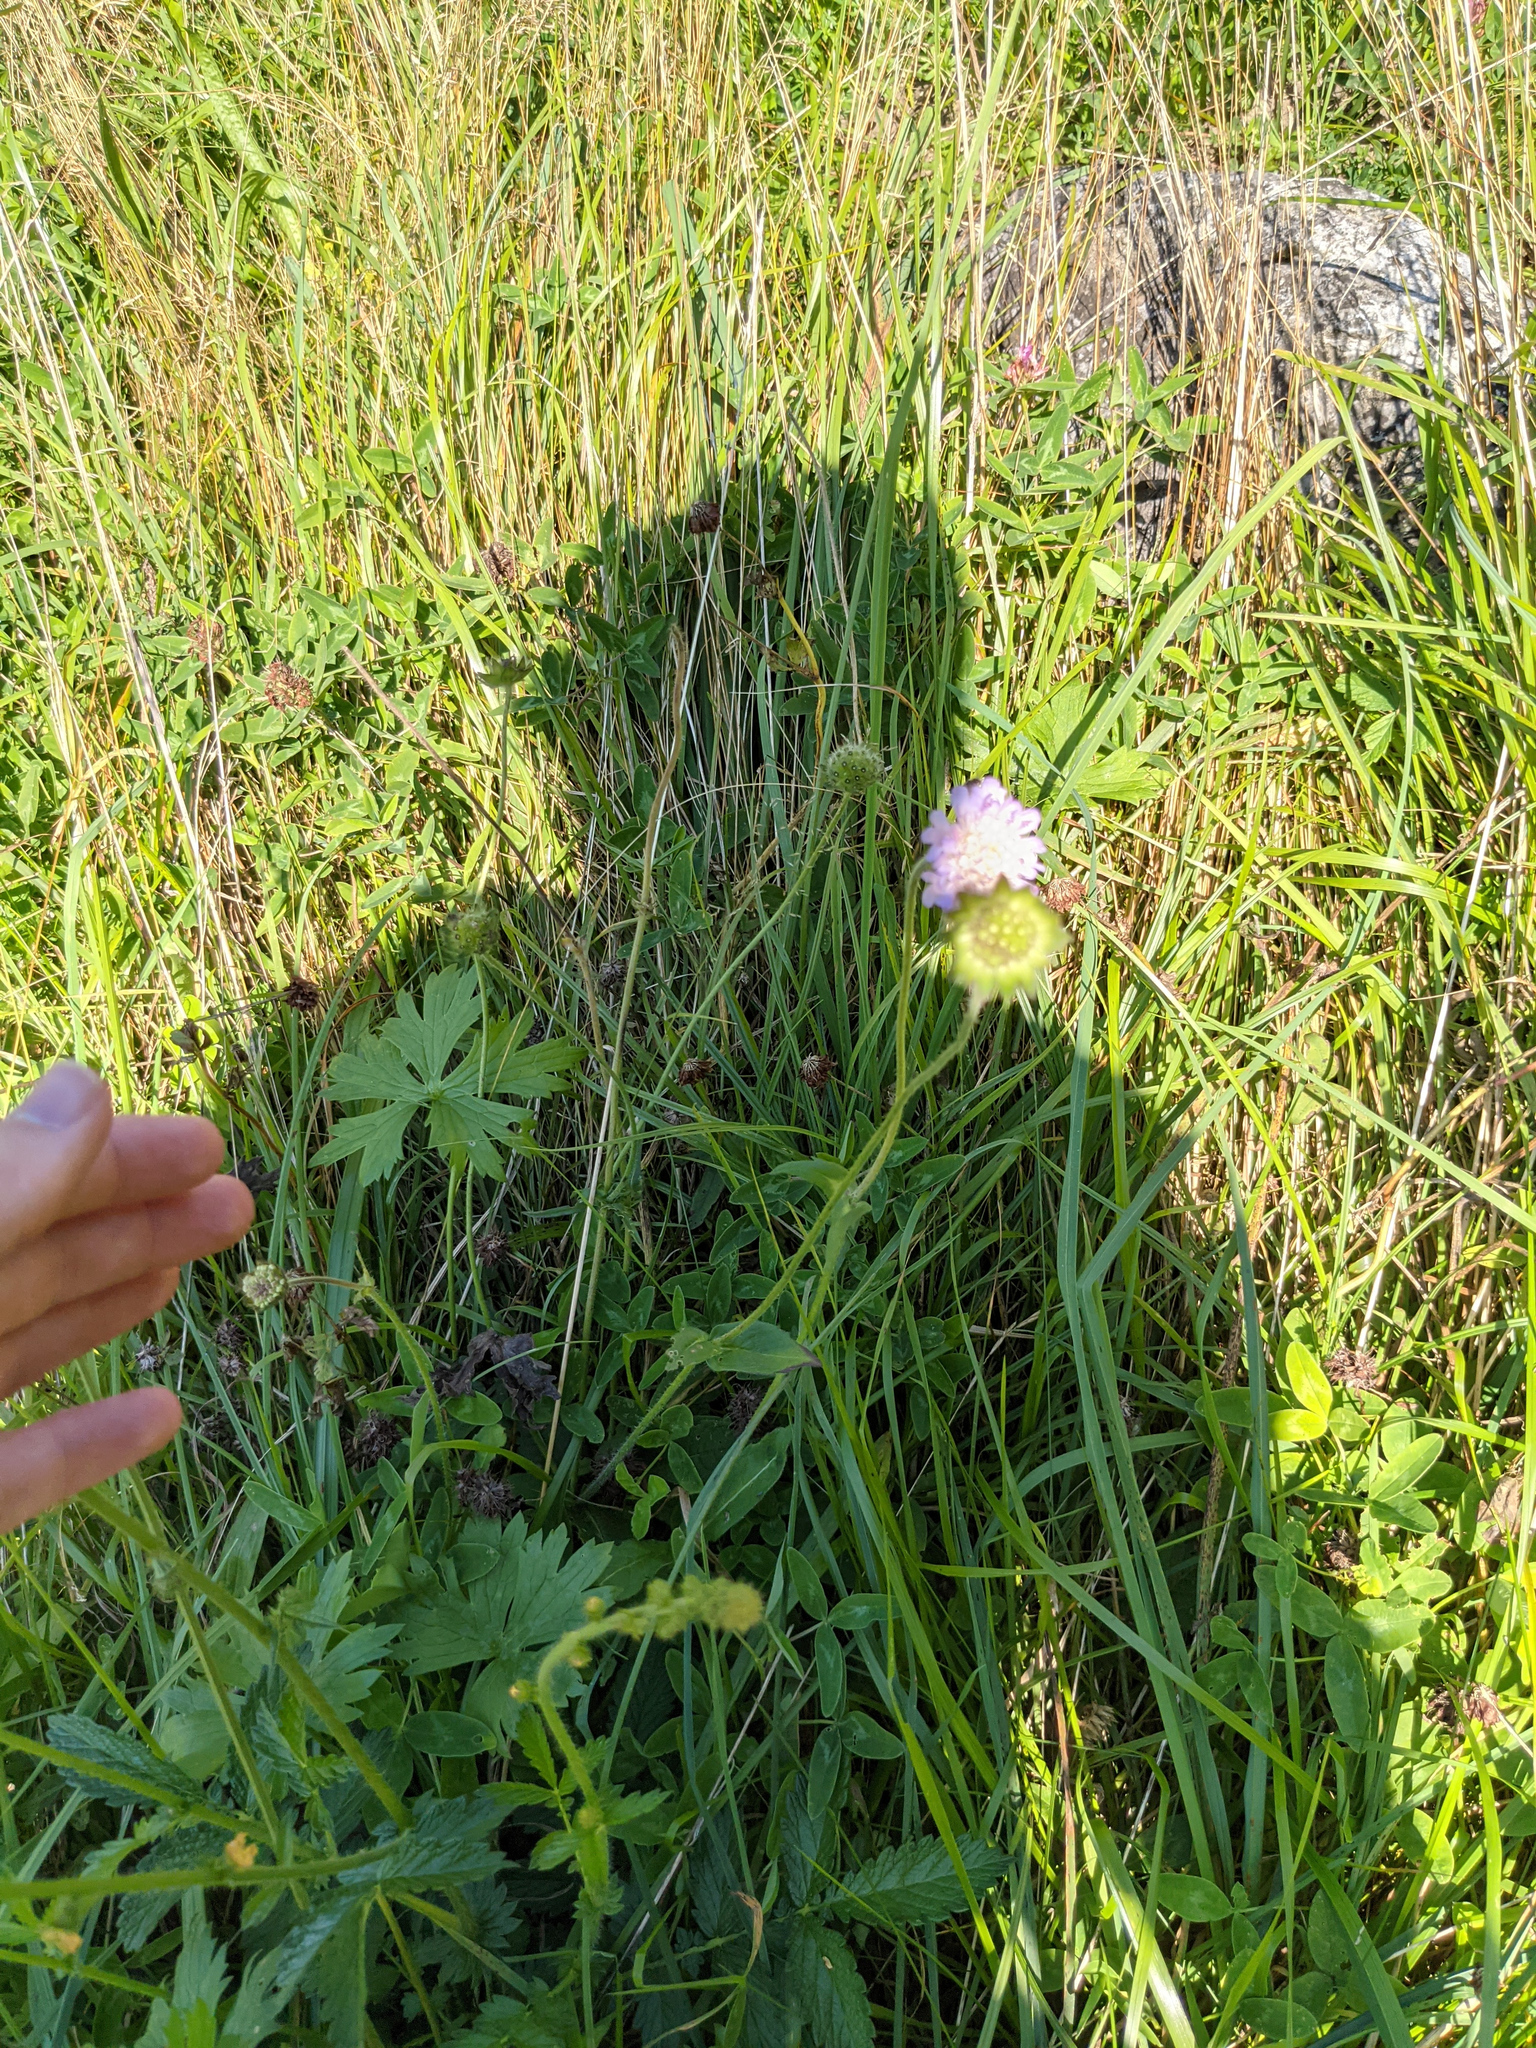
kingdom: Plantae
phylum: Tracheophyta
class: Magnoliopsida
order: Dipsacales
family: Caprifoliaceae
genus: Knautia
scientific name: Knautia arvensis
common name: Field scabiosa
